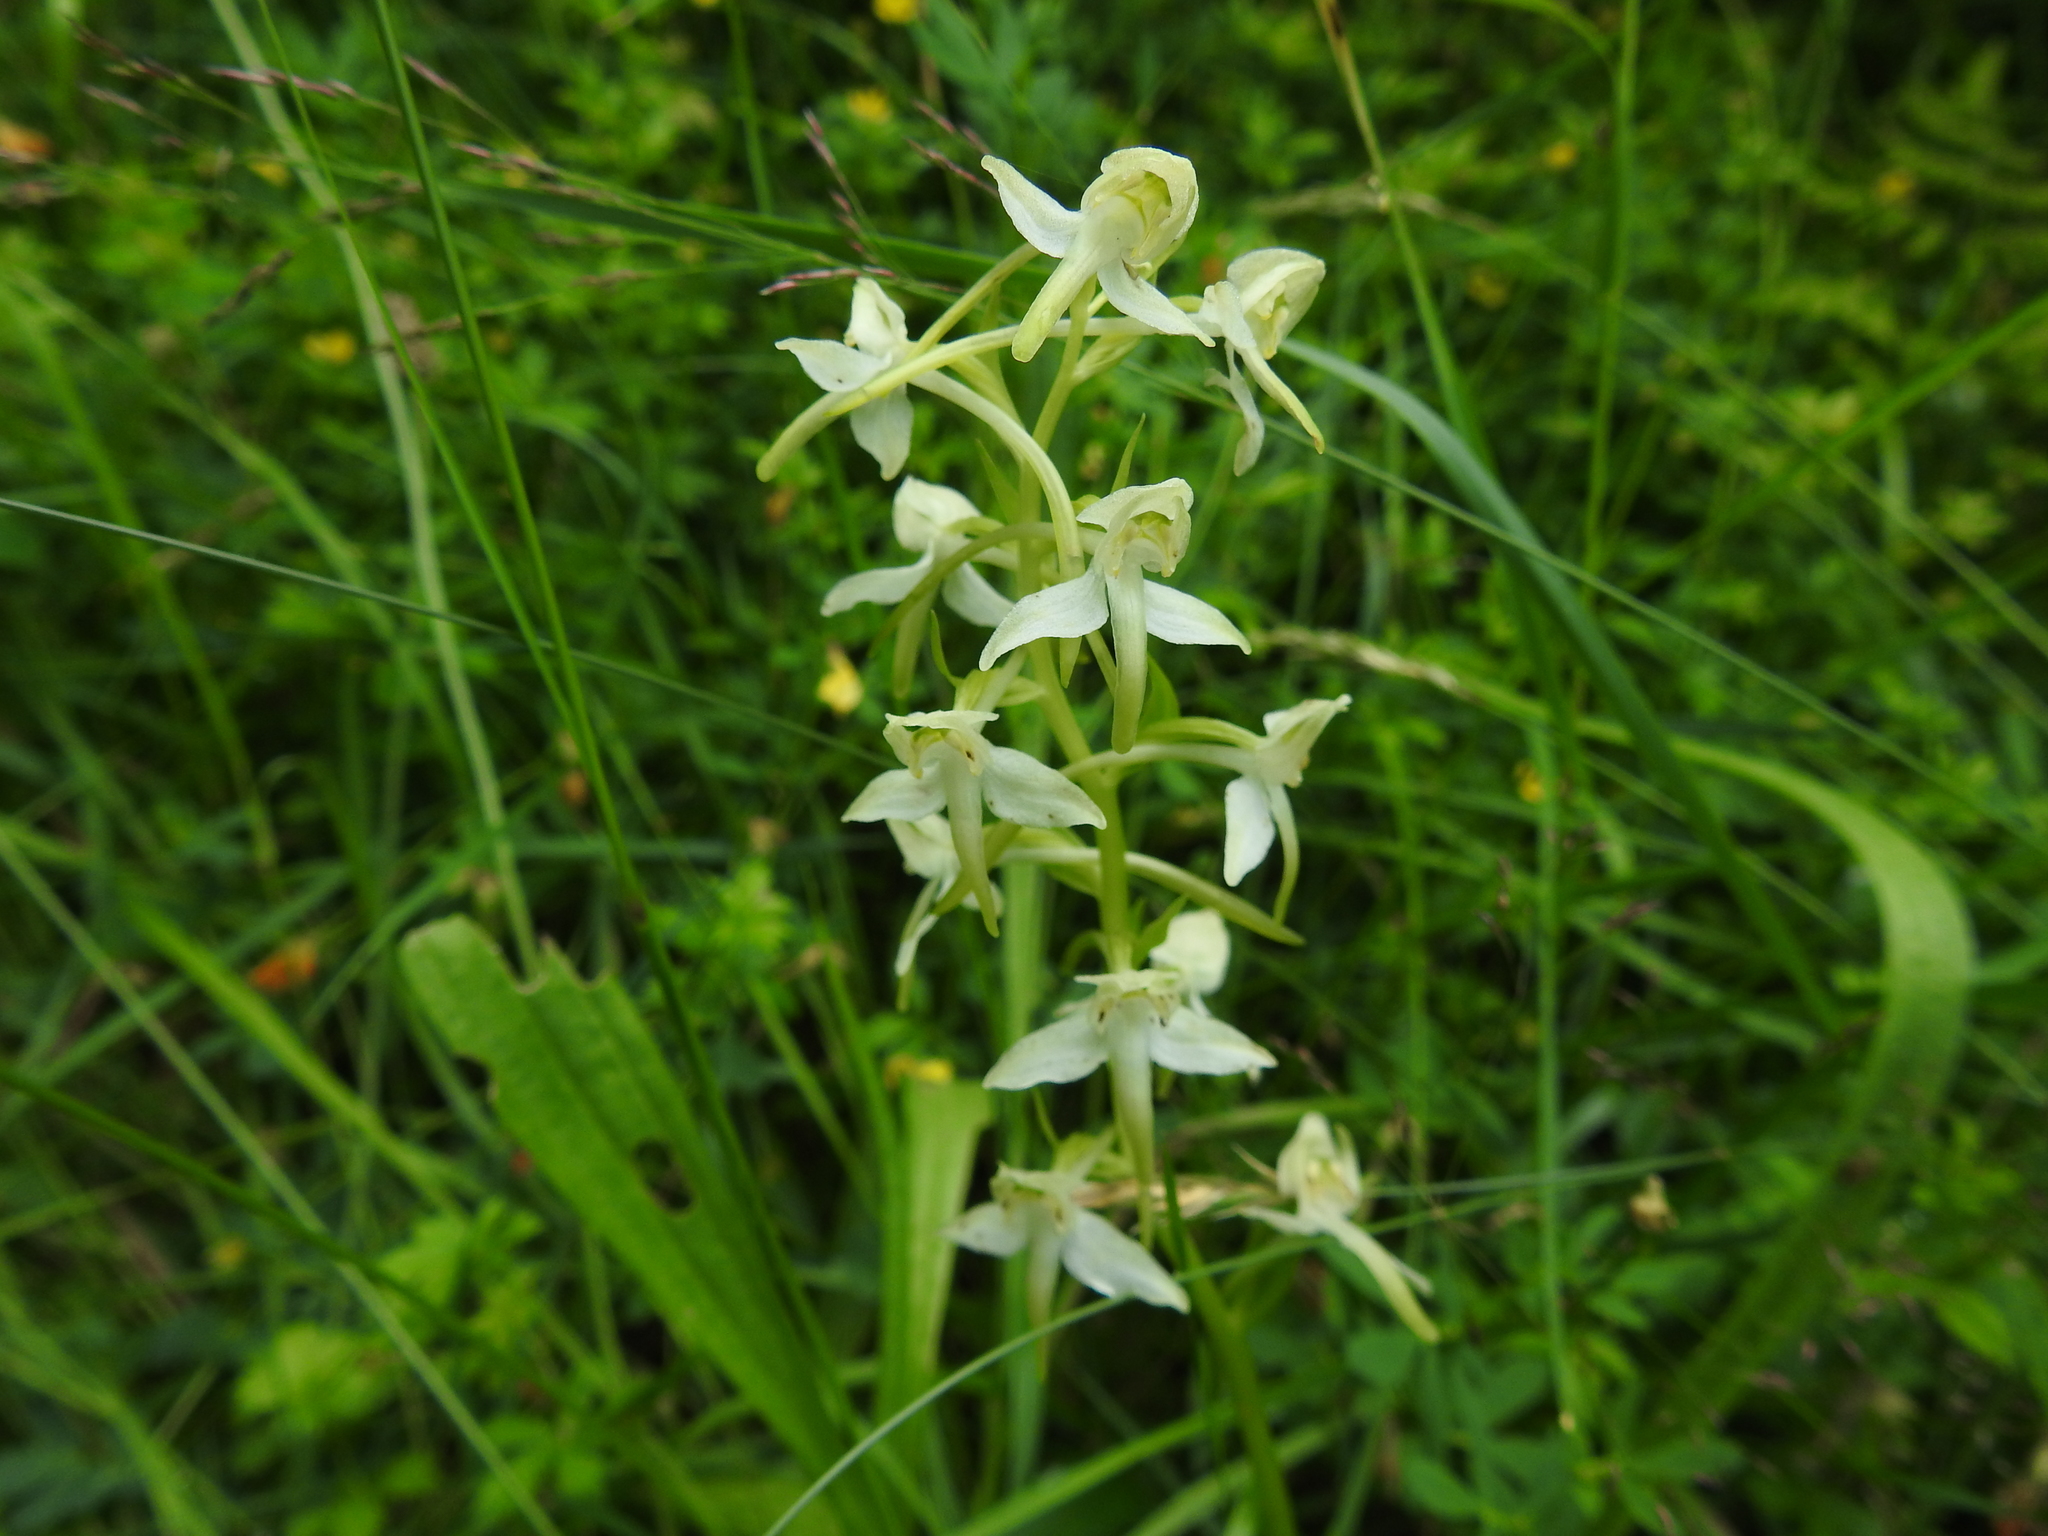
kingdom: Plantae
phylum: Tracheophyta
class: Liliopsida
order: Asparagales
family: Orchidaceae
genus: Platanthera
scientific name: Platanthera chlorantha
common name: Greater butterfly-orchid
